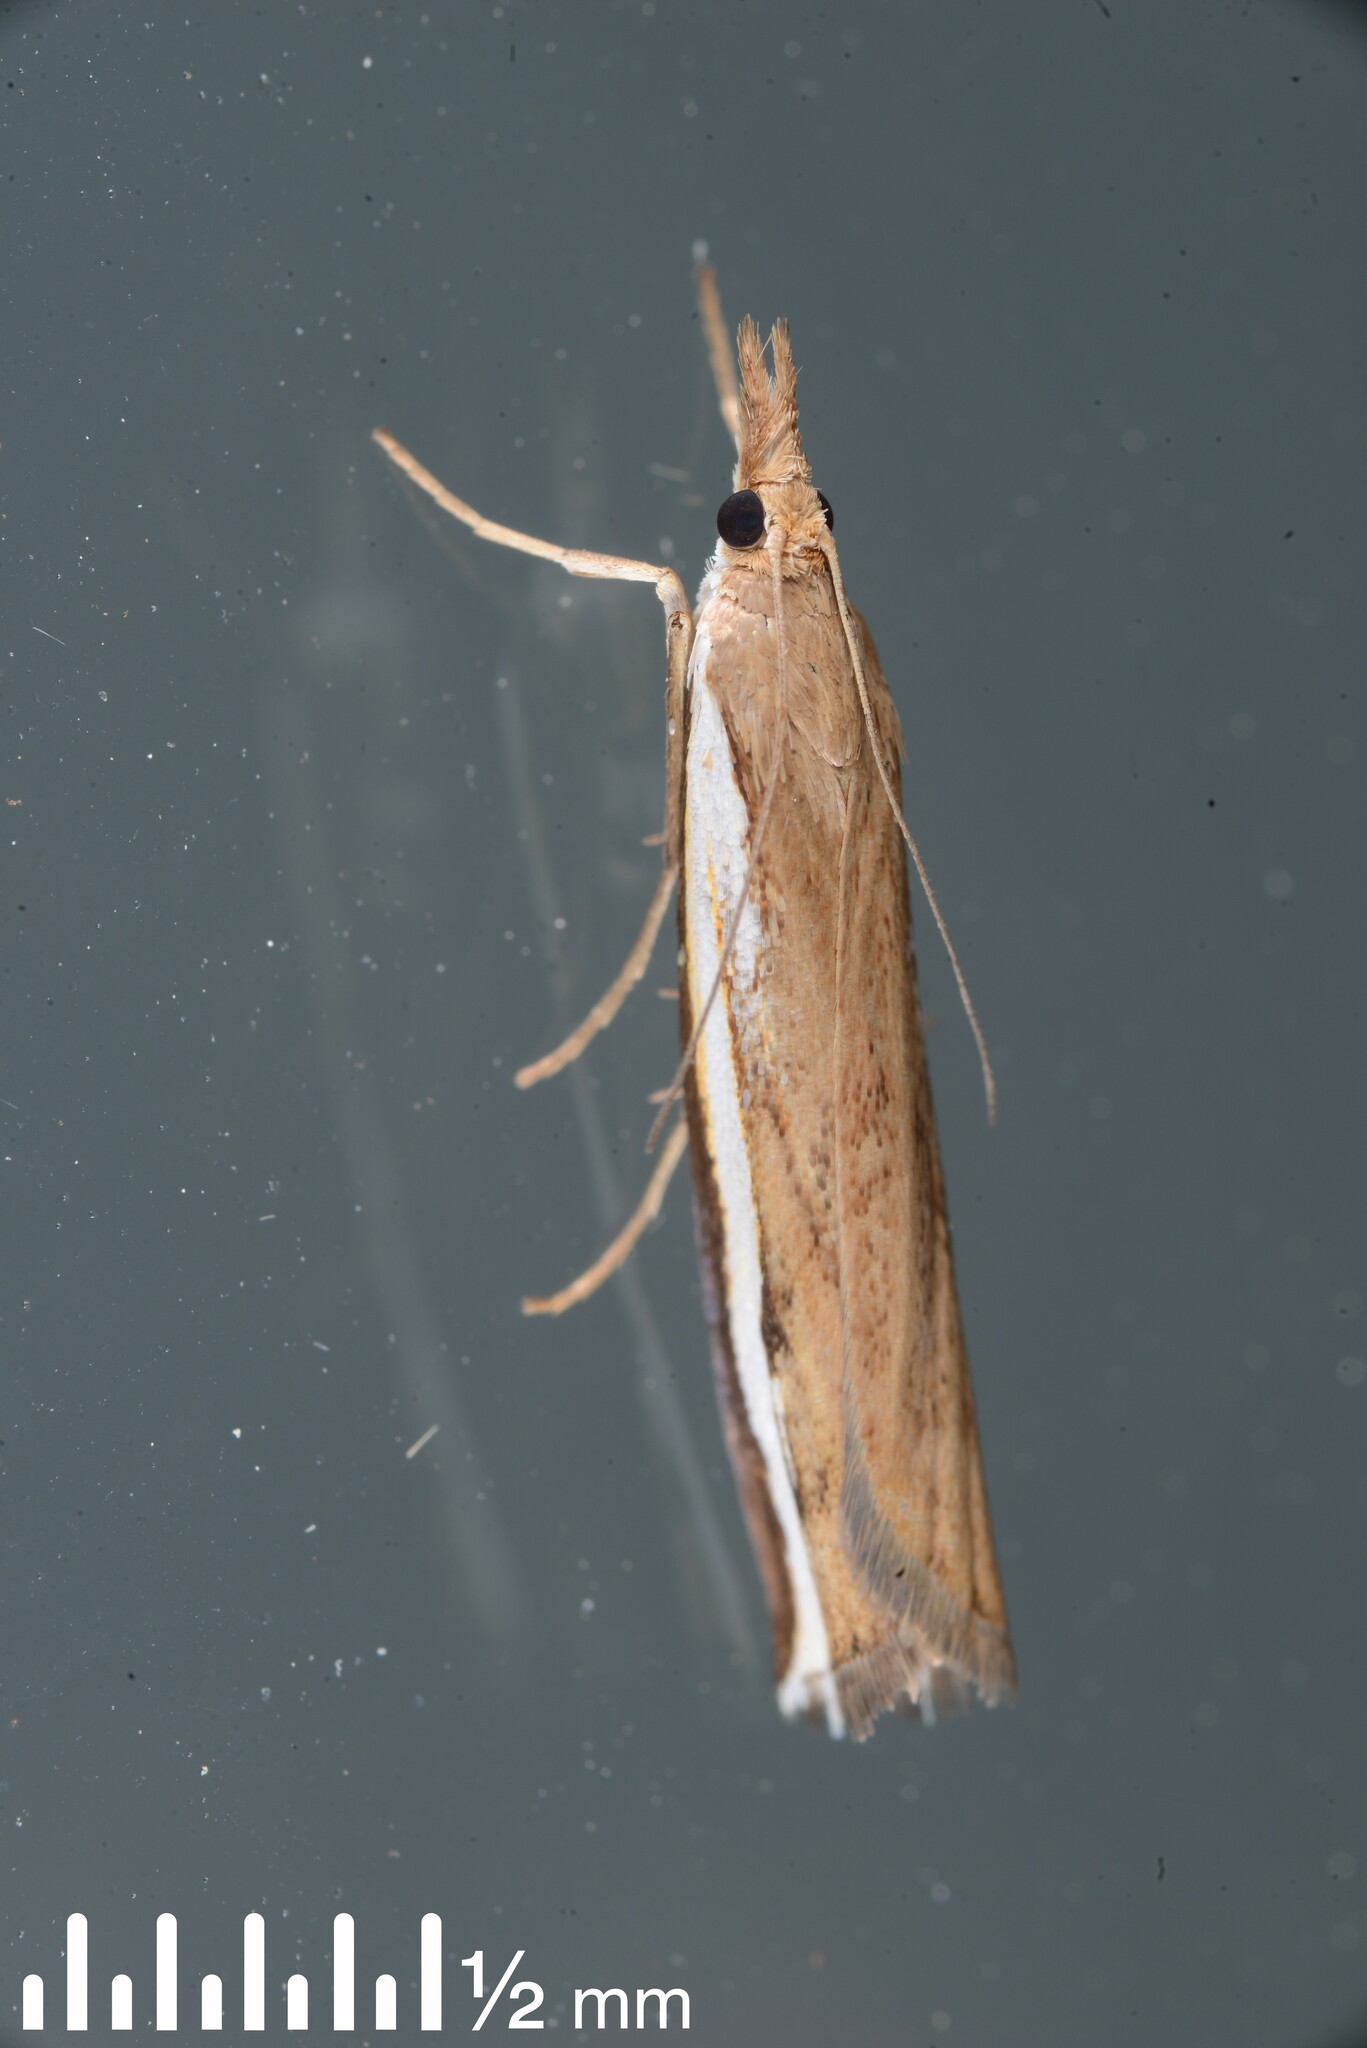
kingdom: Animalia
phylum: Arthropoda
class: Insecta
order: Lepidoptera
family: Crambidae
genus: Orocrambus
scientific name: Orocrambus flexuosellus
